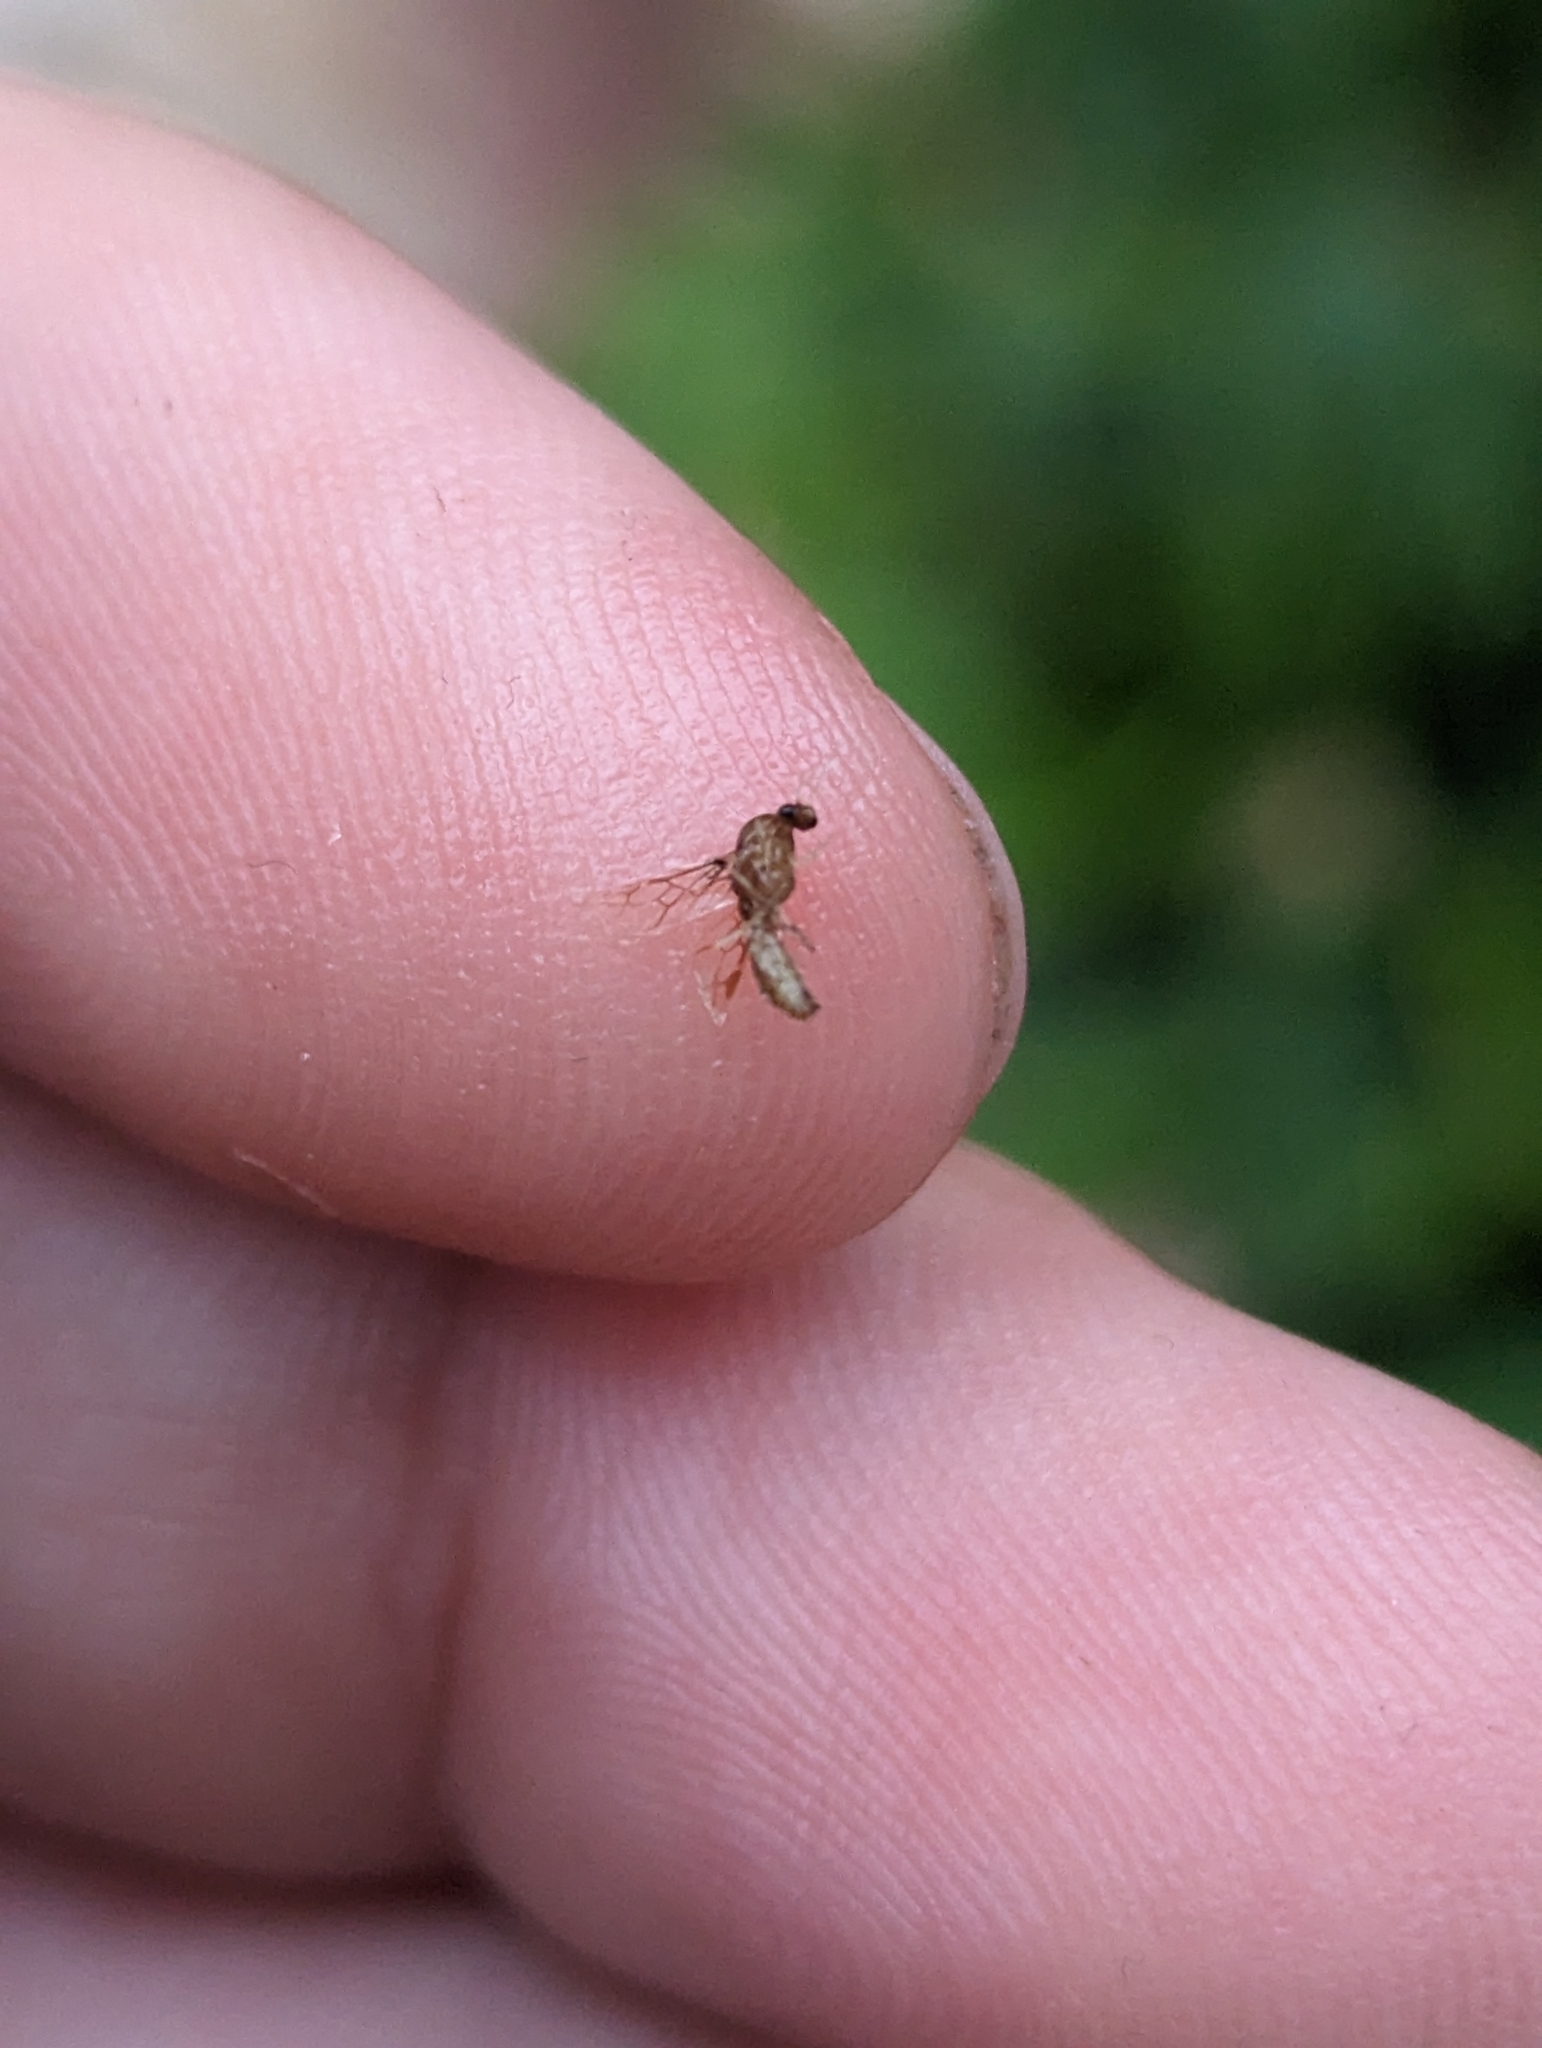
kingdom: Animalia
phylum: Arthropoda
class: Insecta
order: Hymenoptera
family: Formicidae
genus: Linepithema
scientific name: Linepithema humile
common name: Argentine ant
